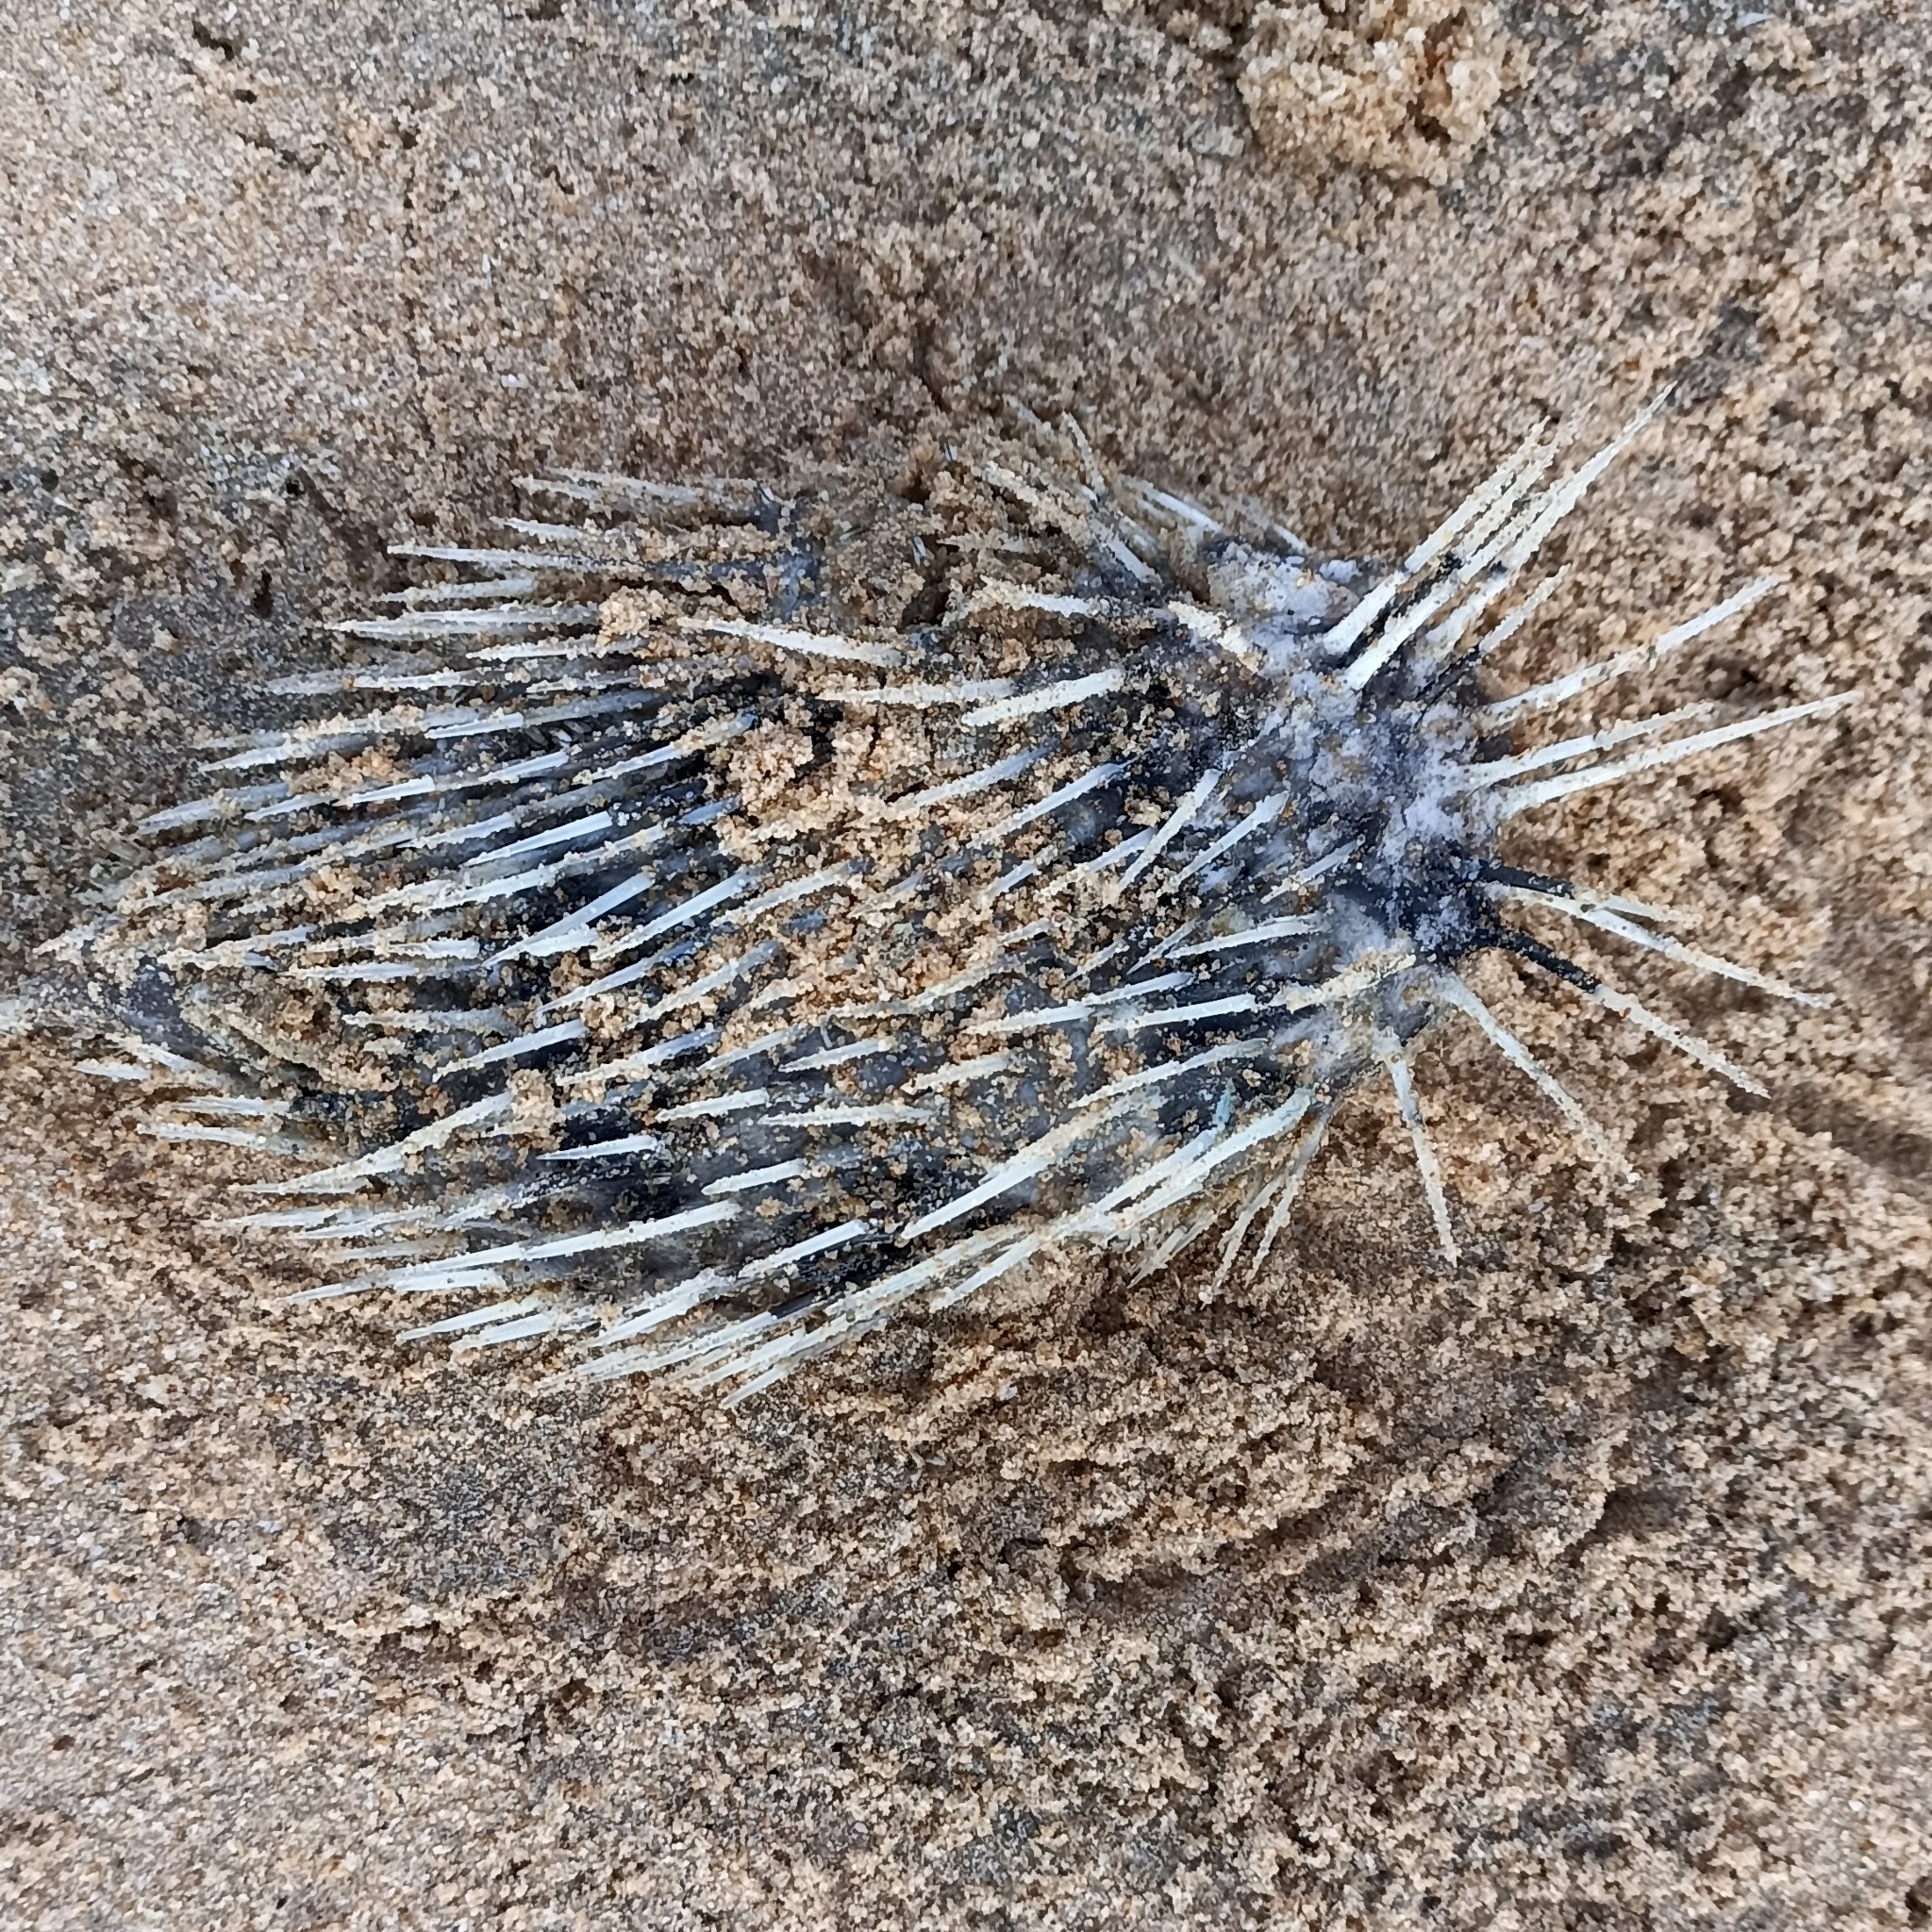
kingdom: Animalia
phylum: Chordata
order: Tetraodontiformes
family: Diodontidae
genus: Diodon
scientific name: Diodon holocanthus
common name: Balloonfish
